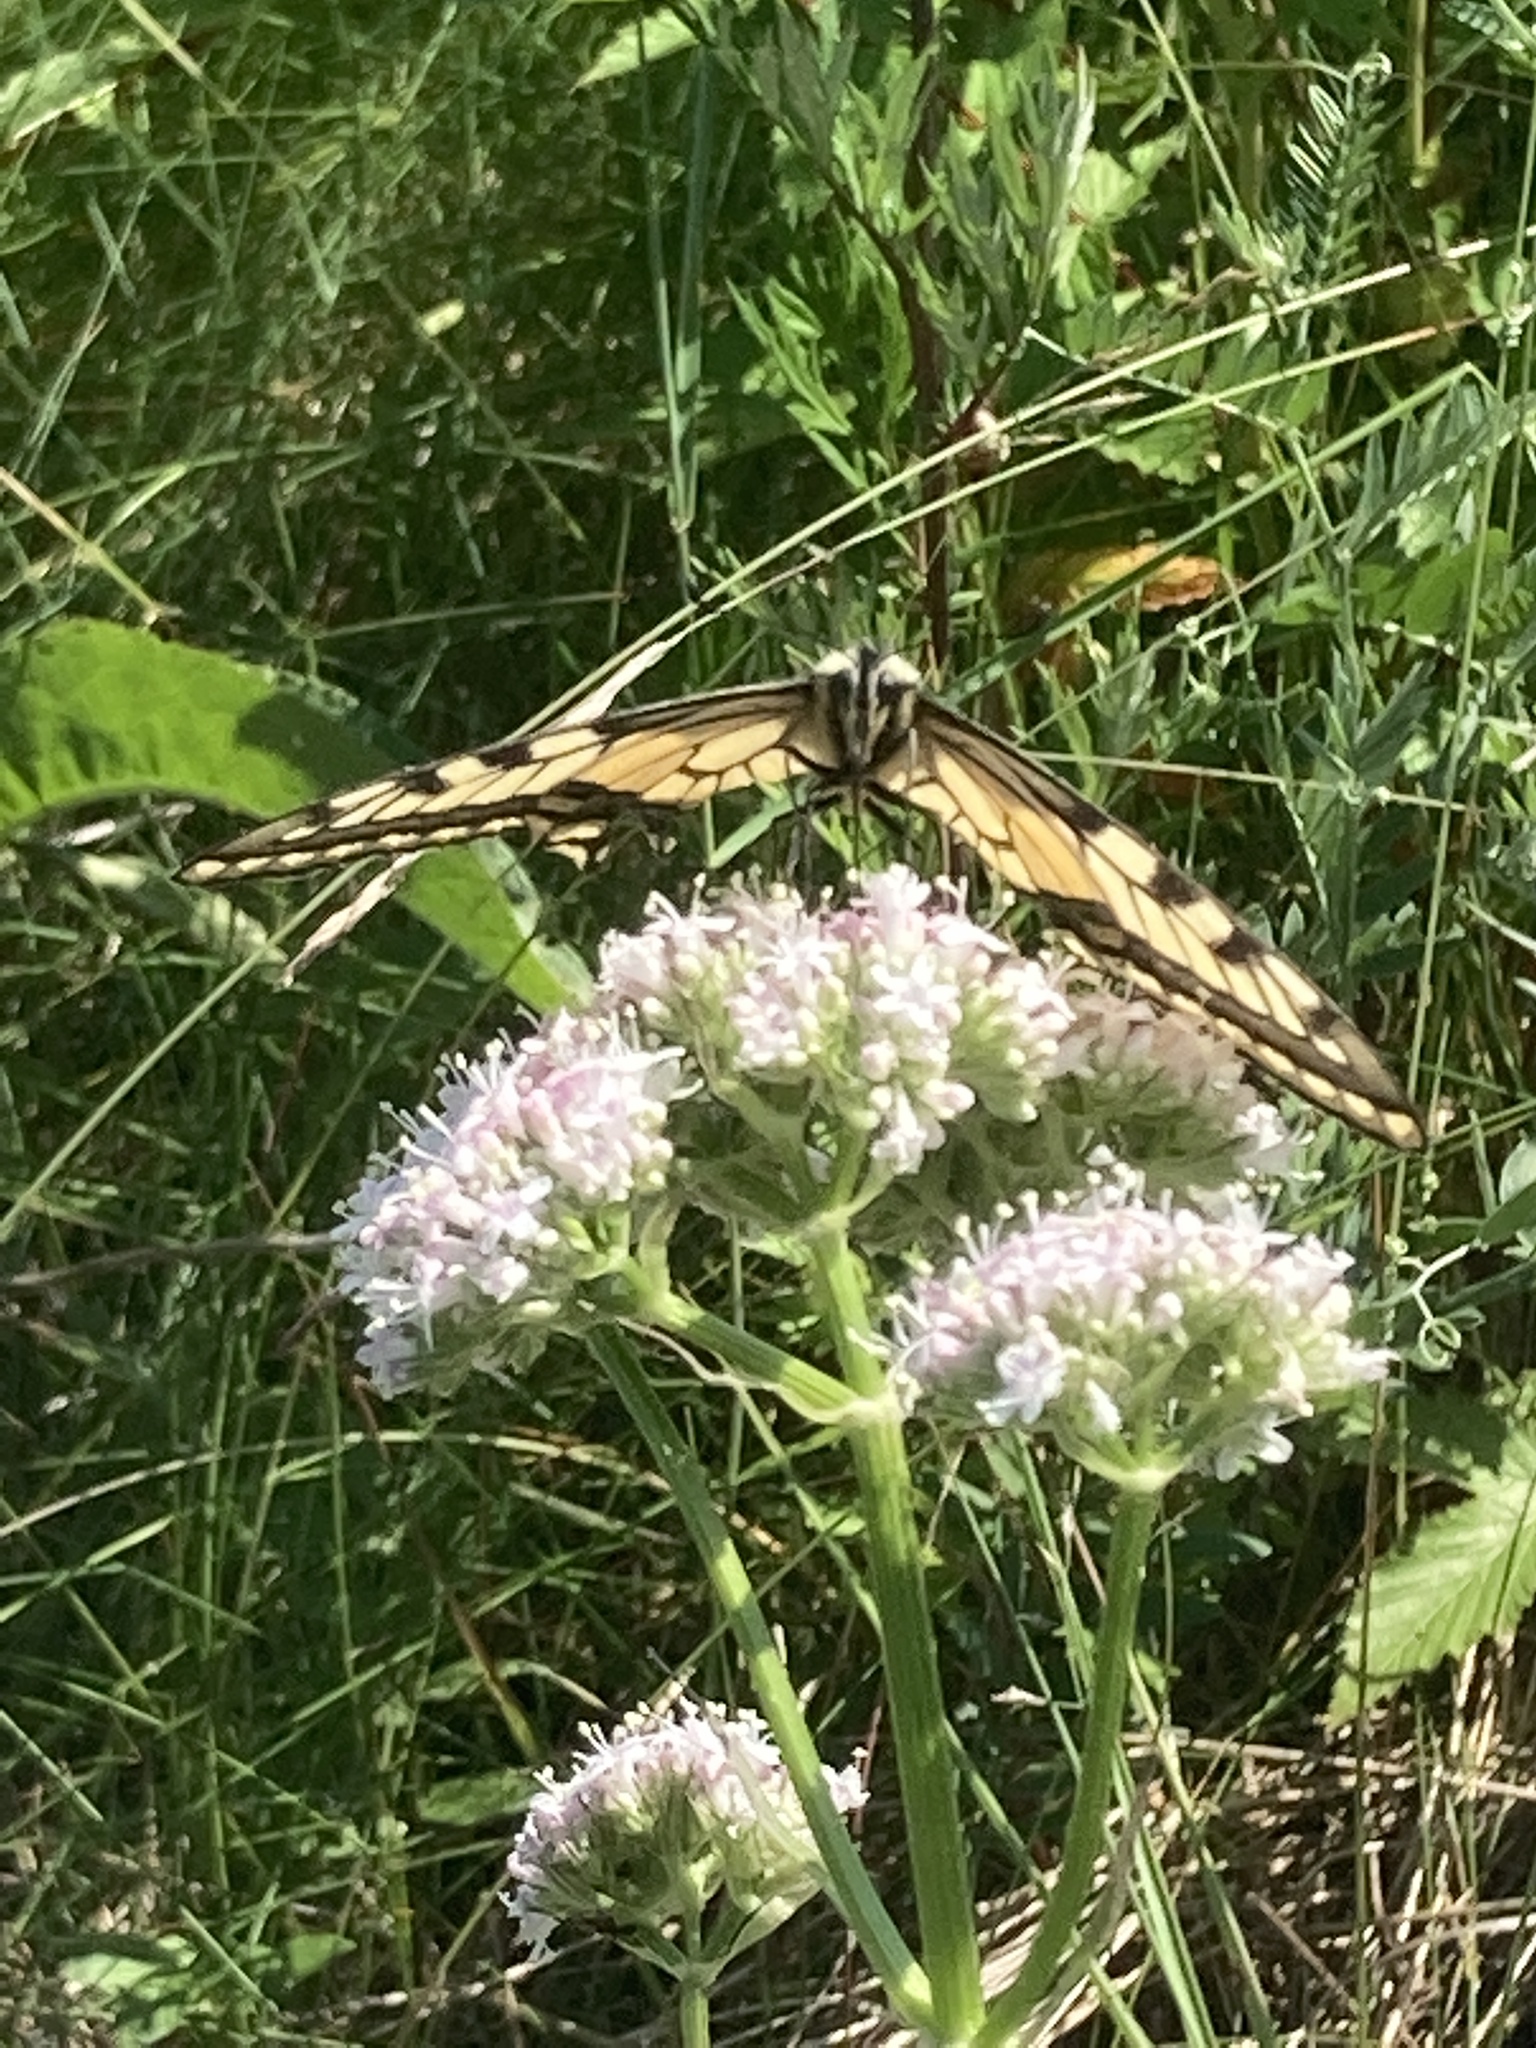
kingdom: Animalia
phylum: Arthropoda
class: Insecta
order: Lepidoptera
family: Papilionidae
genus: Papilio
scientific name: Papilio machaon
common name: Swallowtail
